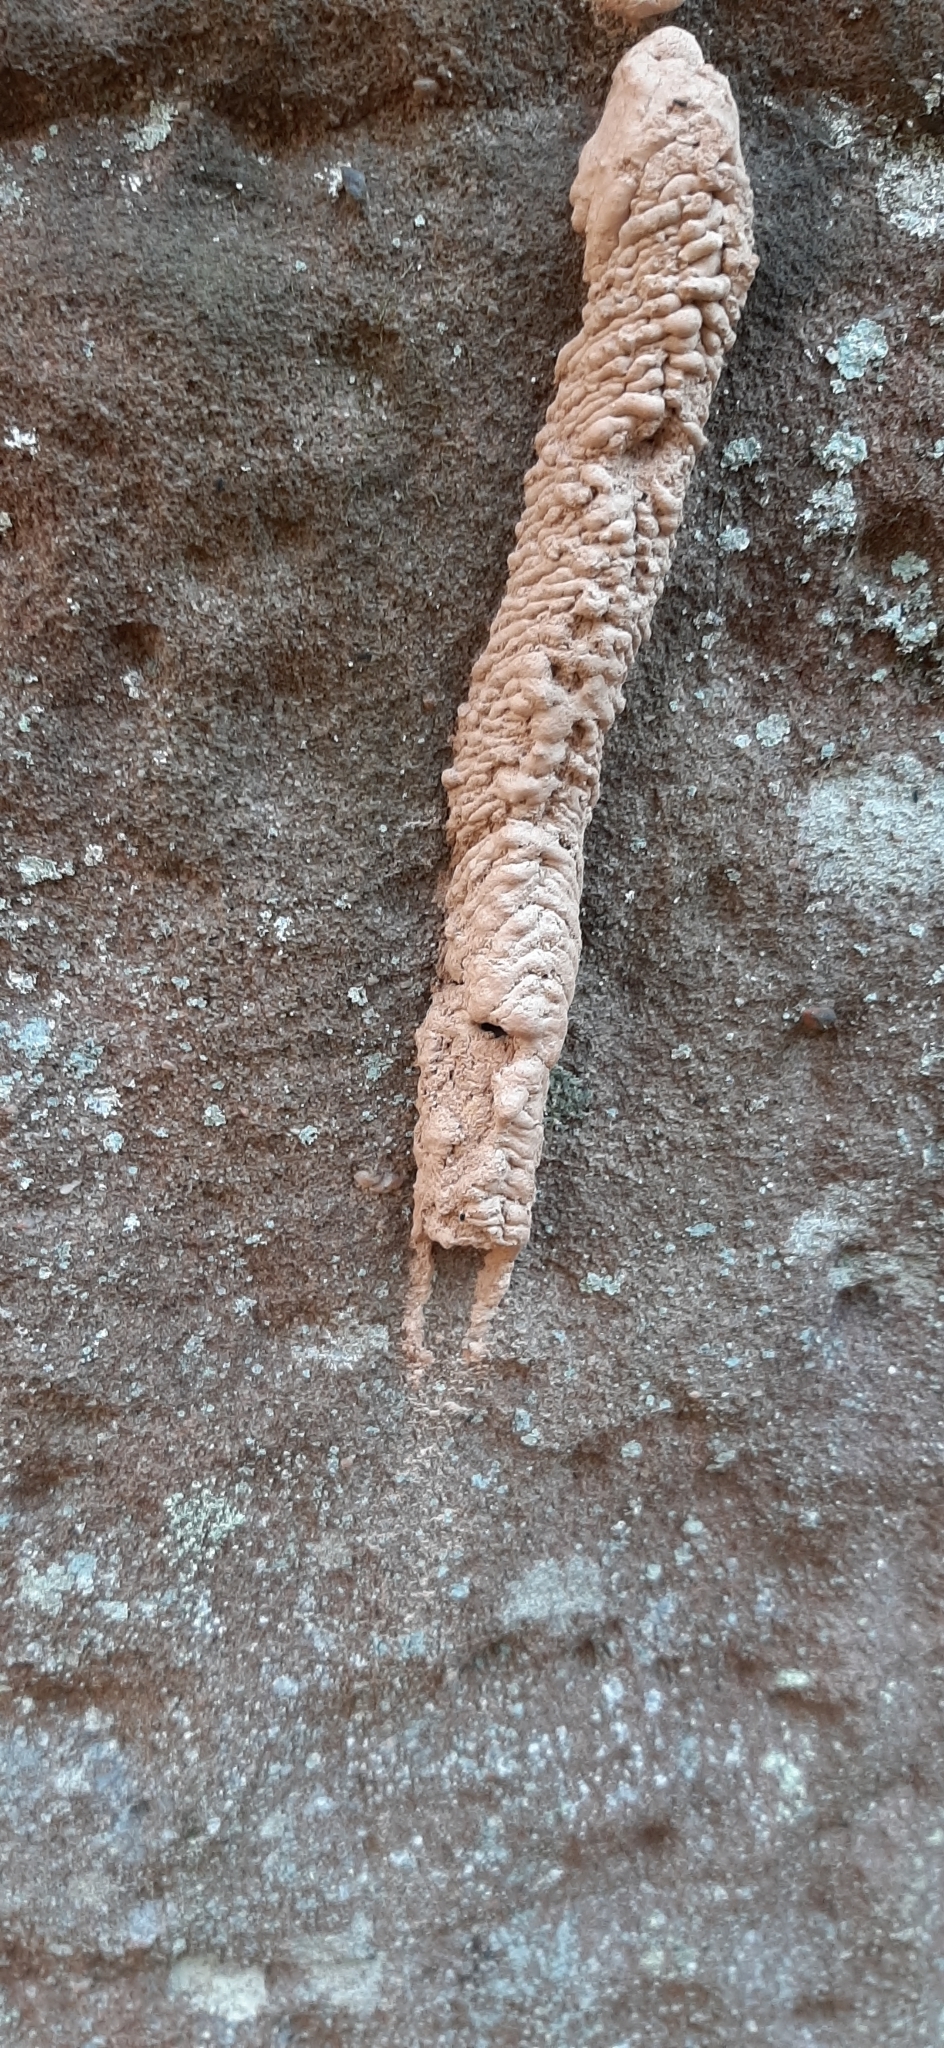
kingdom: Animalia
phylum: Arthropoda
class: Insecta
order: Hymenoptera
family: Crabronidae
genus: Trypoxylon
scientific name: Trypoxylon politum
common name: Organ-pipe mud-dauber wasp
